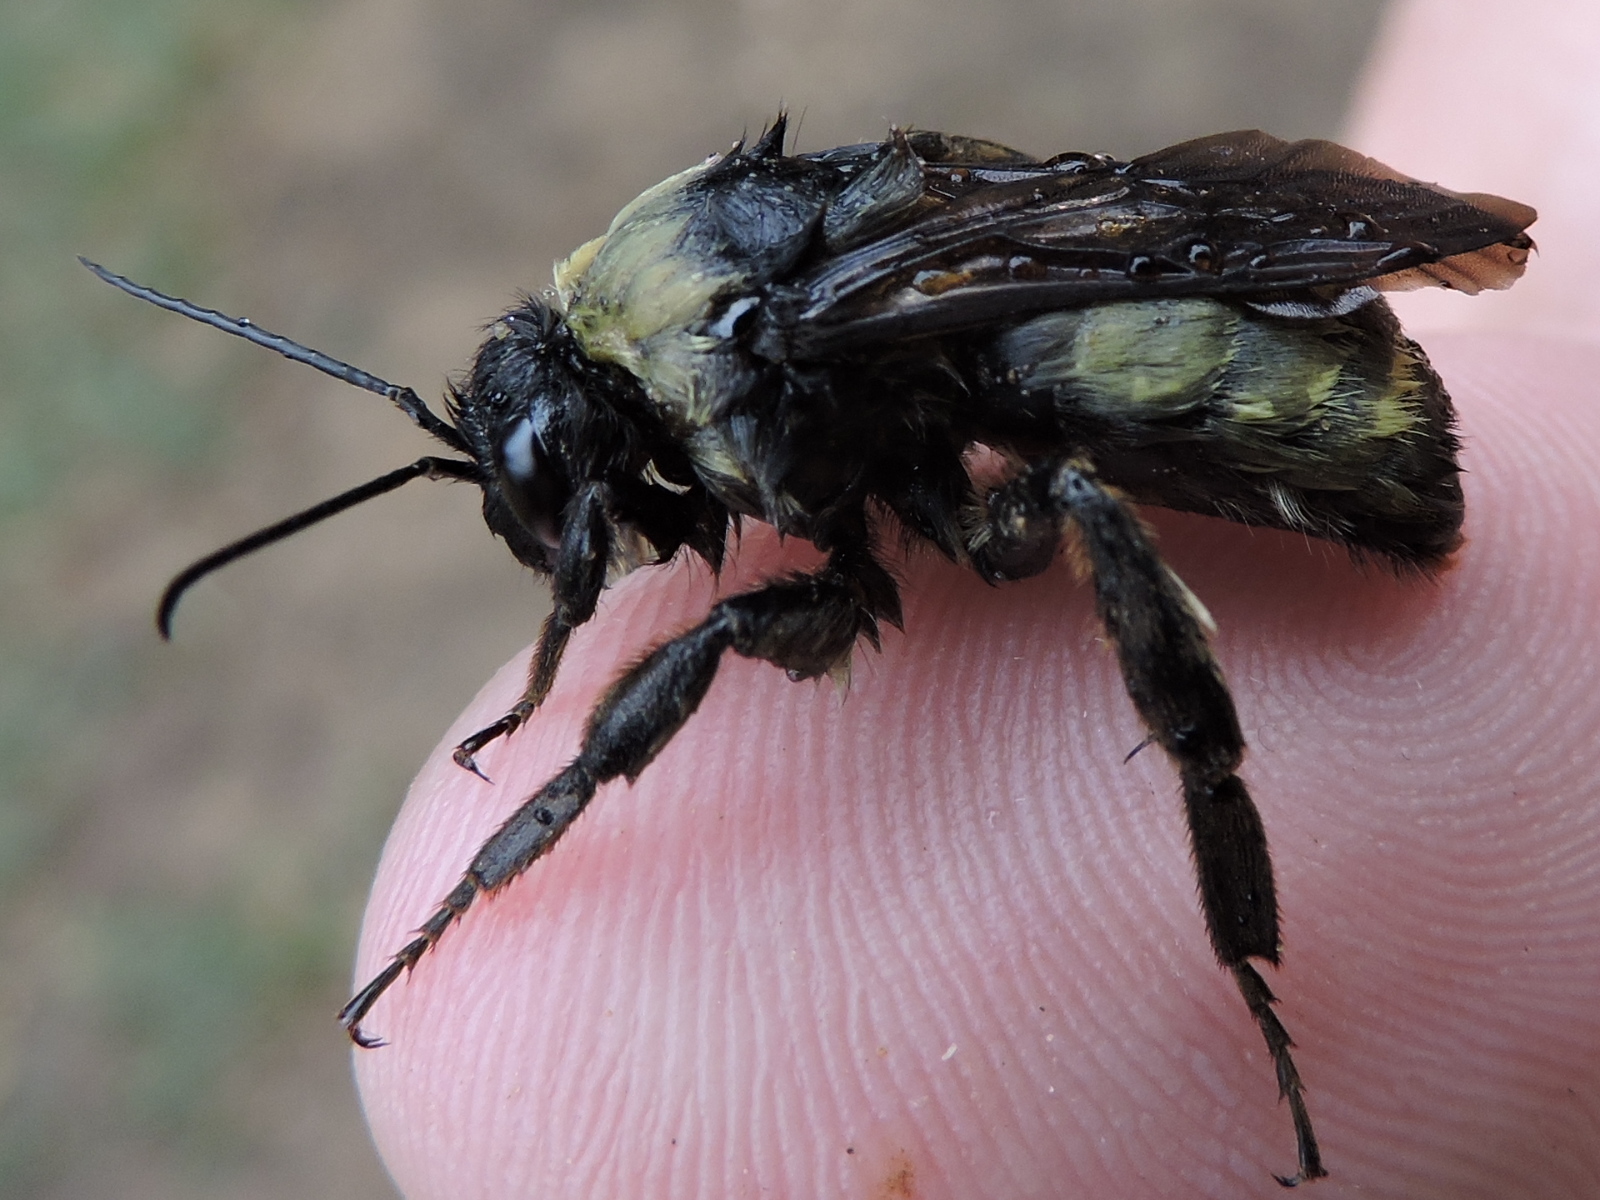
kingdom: Animalia
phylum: Arthropoda
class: Insecta
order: Hymenoptera
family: Apidae
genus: Bombus
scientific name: Bombus pensylvanicus
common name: Bumble bee
